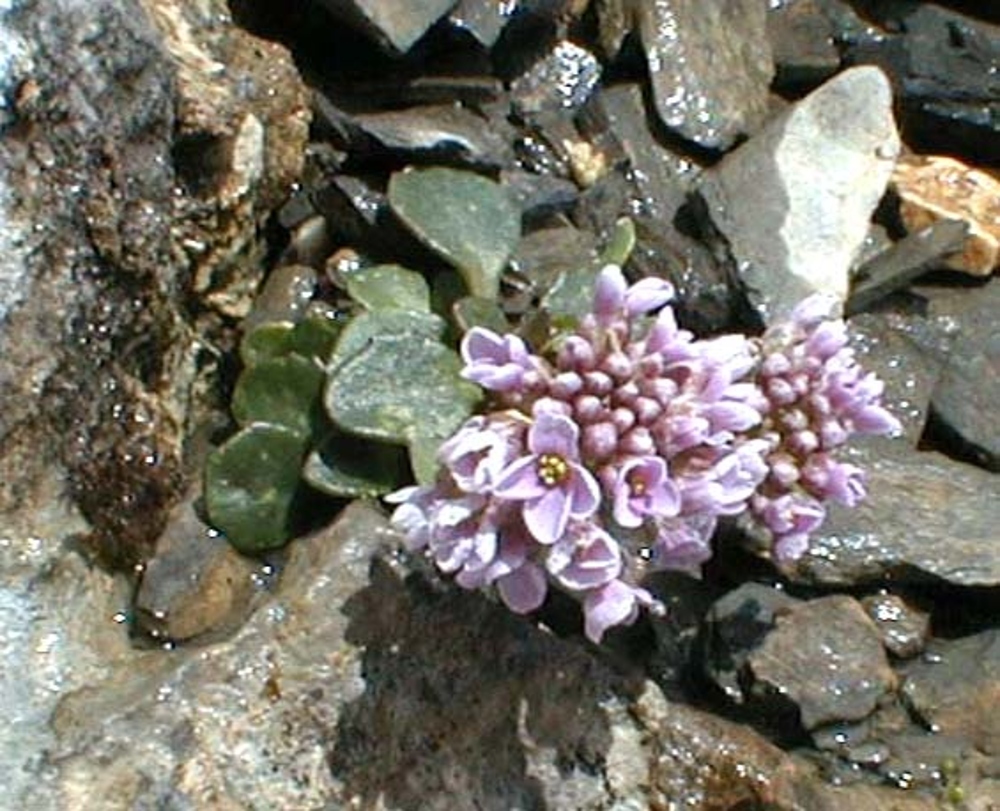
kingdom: Plantae
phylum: Tracheophyta
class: Magnoliopsida
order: Brassicales
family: Brassicaceae
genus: Noccaea
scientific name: Noccaea rotundifolia
